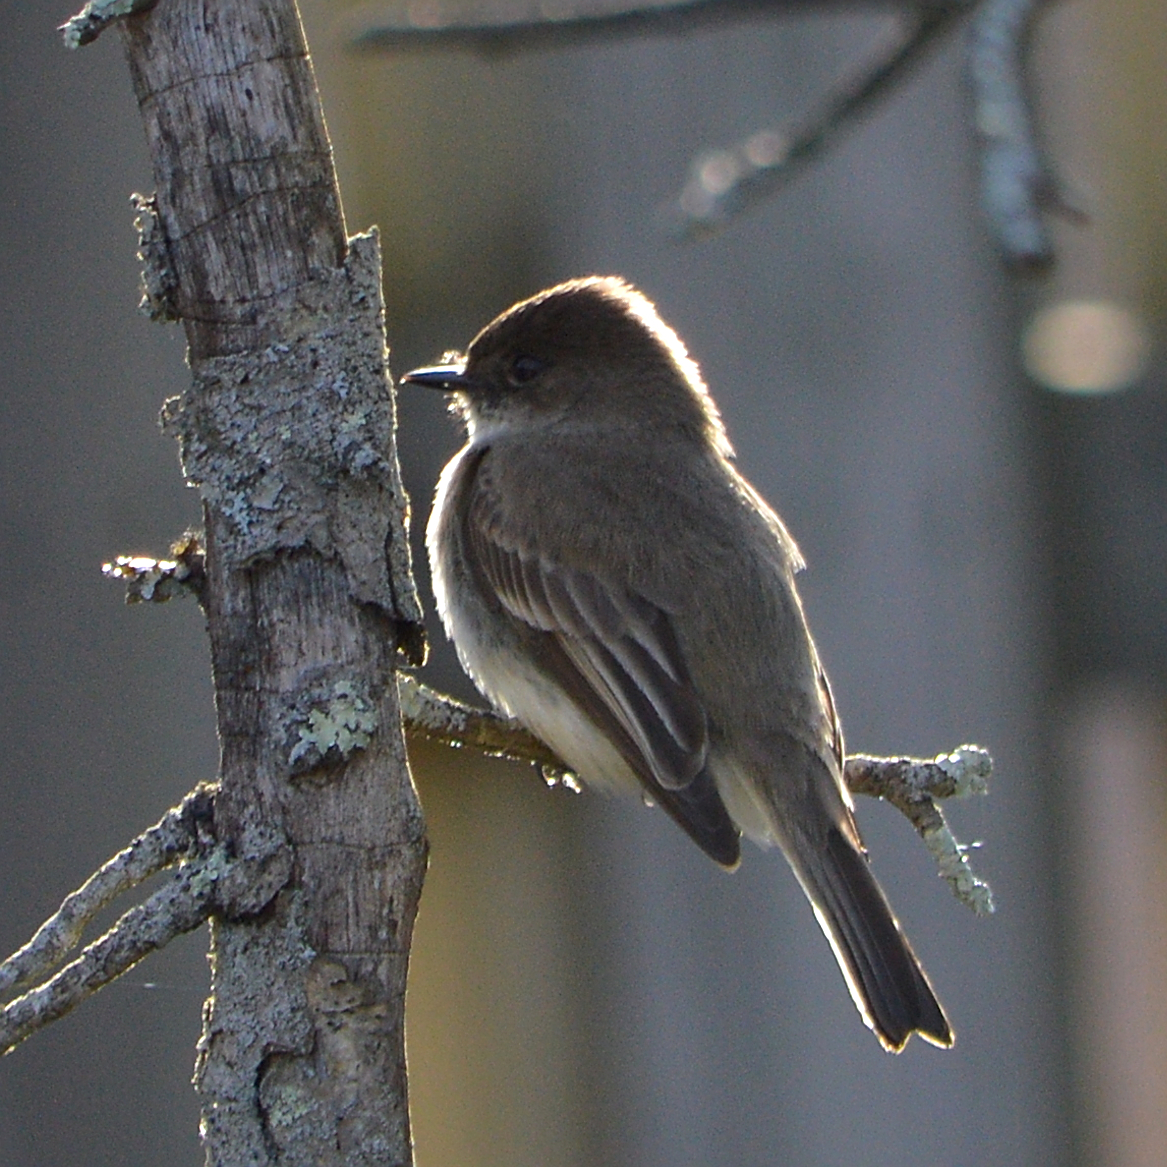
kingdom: Animalia
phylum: Chordata
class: Aves
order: Passeriformes
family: Tyrannidae
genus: Sayornis
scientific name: Sayornis phoebe
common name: Eastern phoebe
